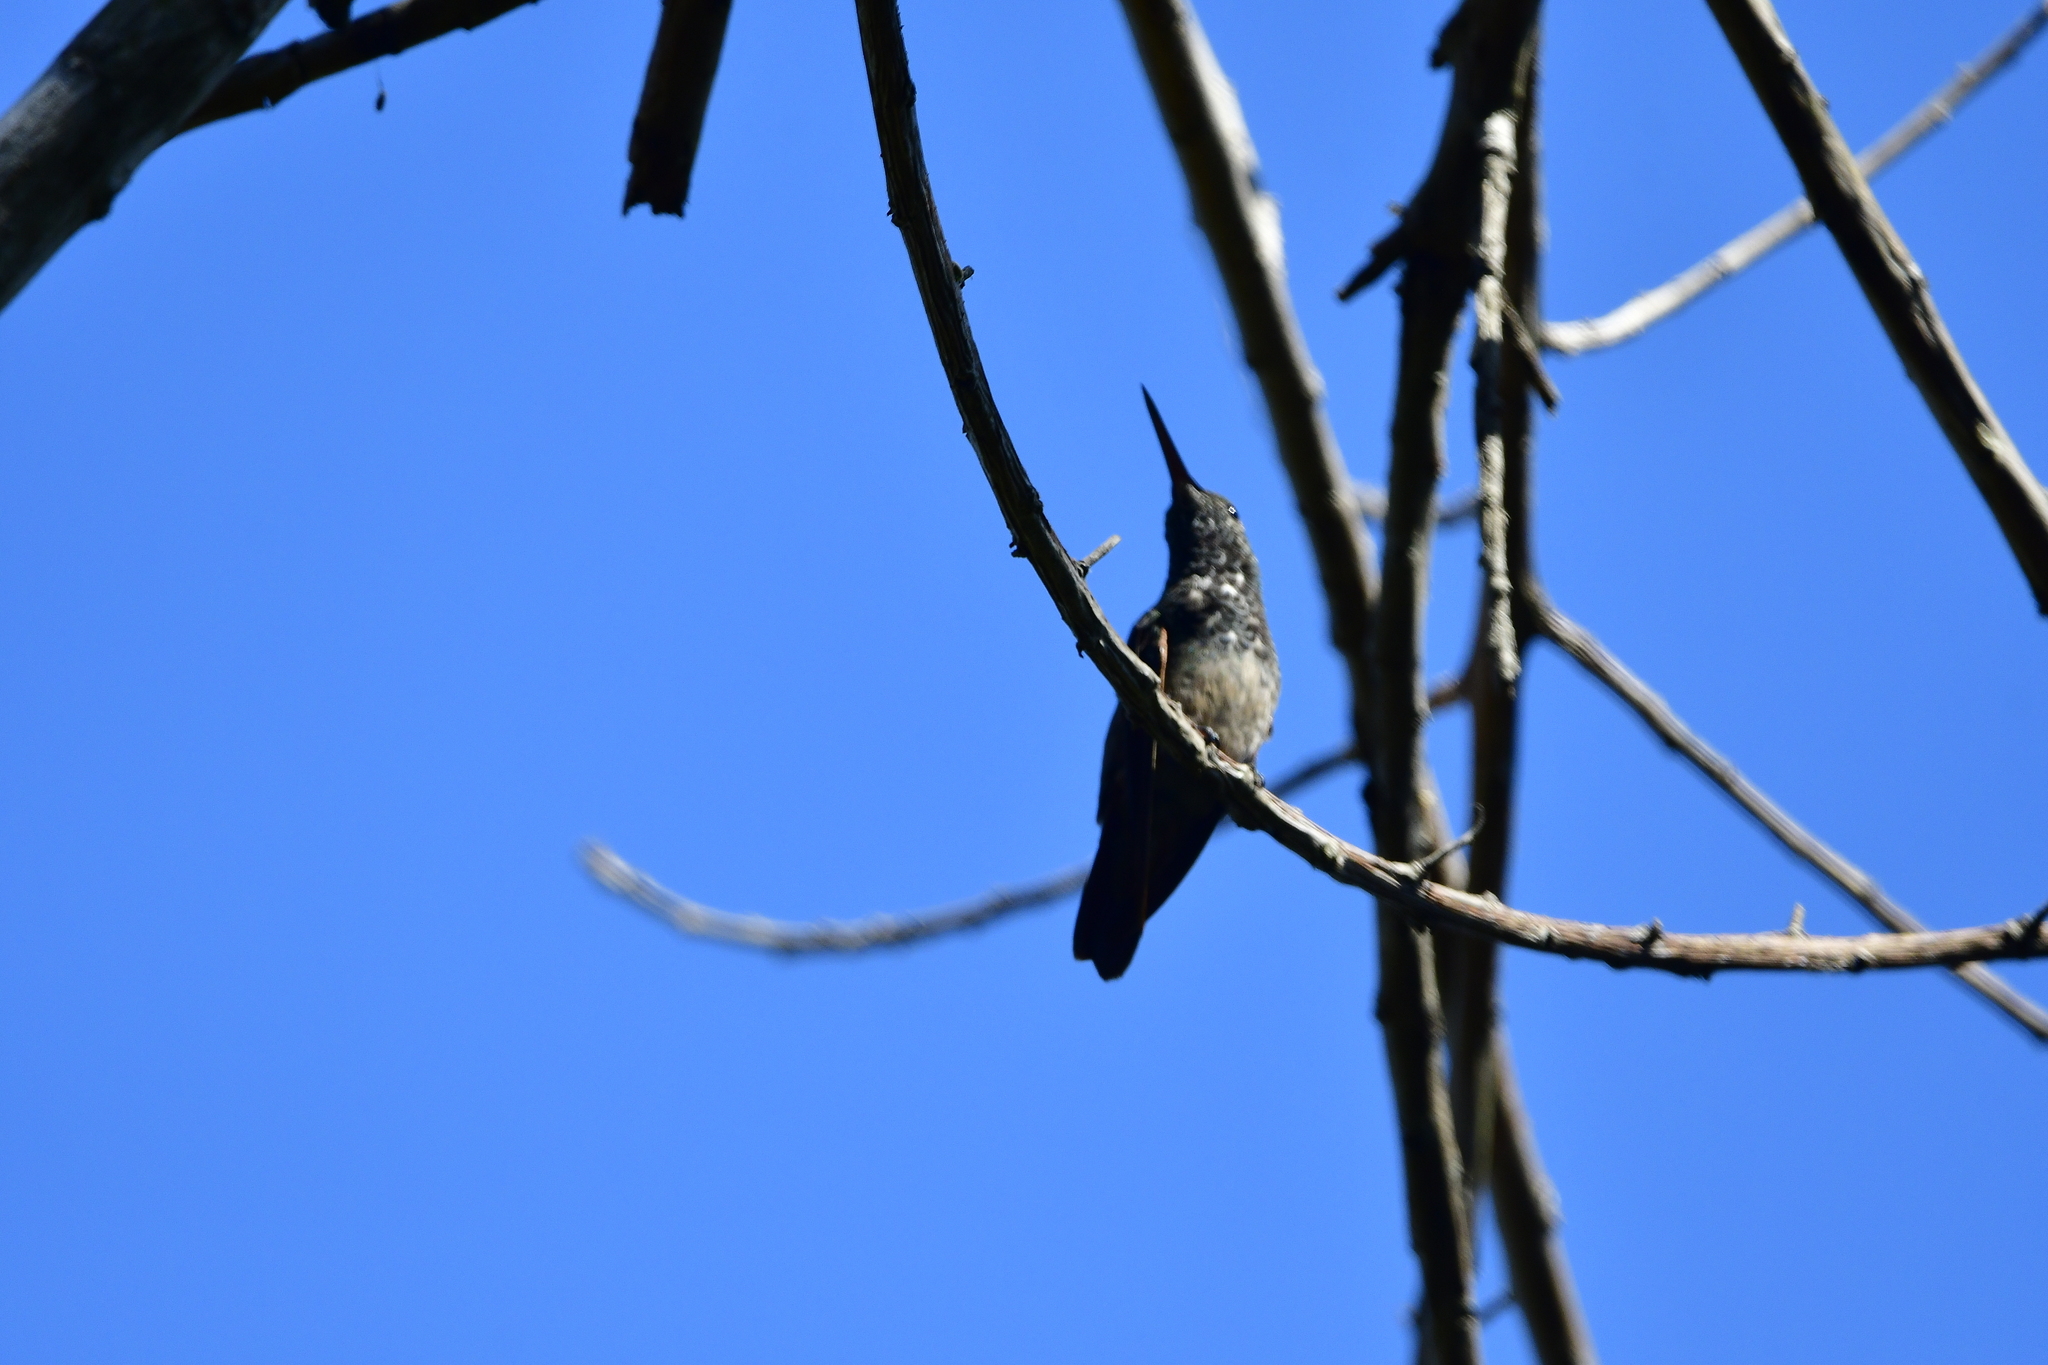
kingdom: Animalia
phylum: Chordata
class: Aves
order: Apodiformes
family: Trochilidae
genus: Saucerottia
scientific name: Saucerottia beryllina
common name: Berylline hummingbird
